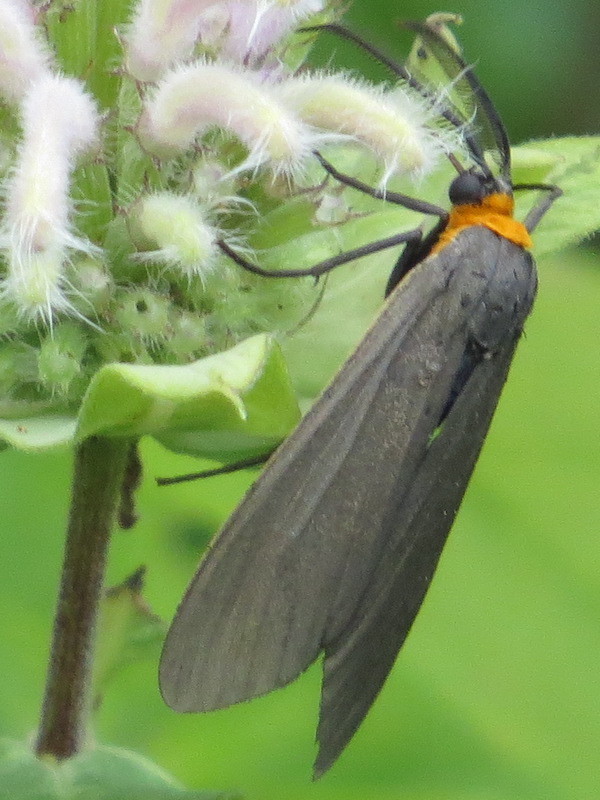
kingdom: Animalia
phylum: Arthropoda
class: Insecta
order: Lepidoptera
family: Erebidae
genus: Cisseps
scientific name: Cisseps fulvicollis
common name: Yellow-collared scape moth
